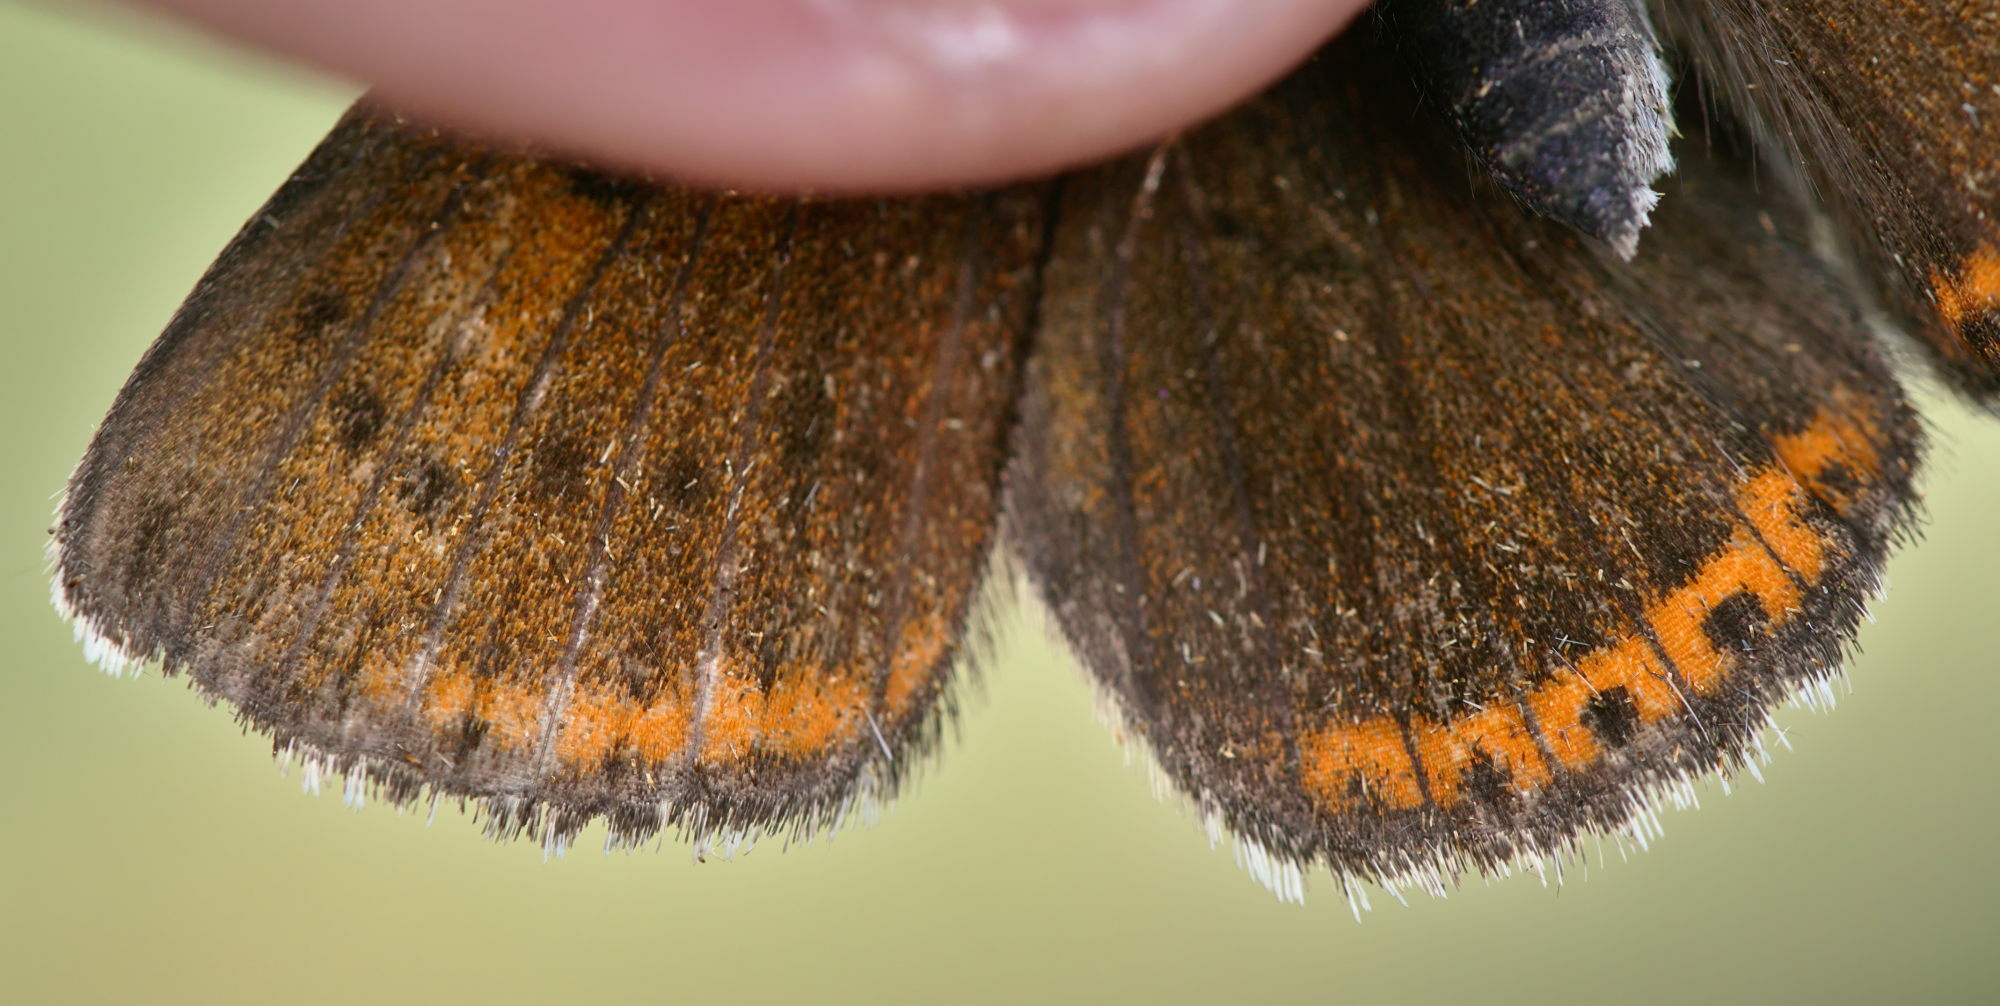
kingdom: Animalia
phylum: Arthropoda
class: Insecta
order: Lepidoptera
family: Lycaenidae
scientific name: Lycaenidae
